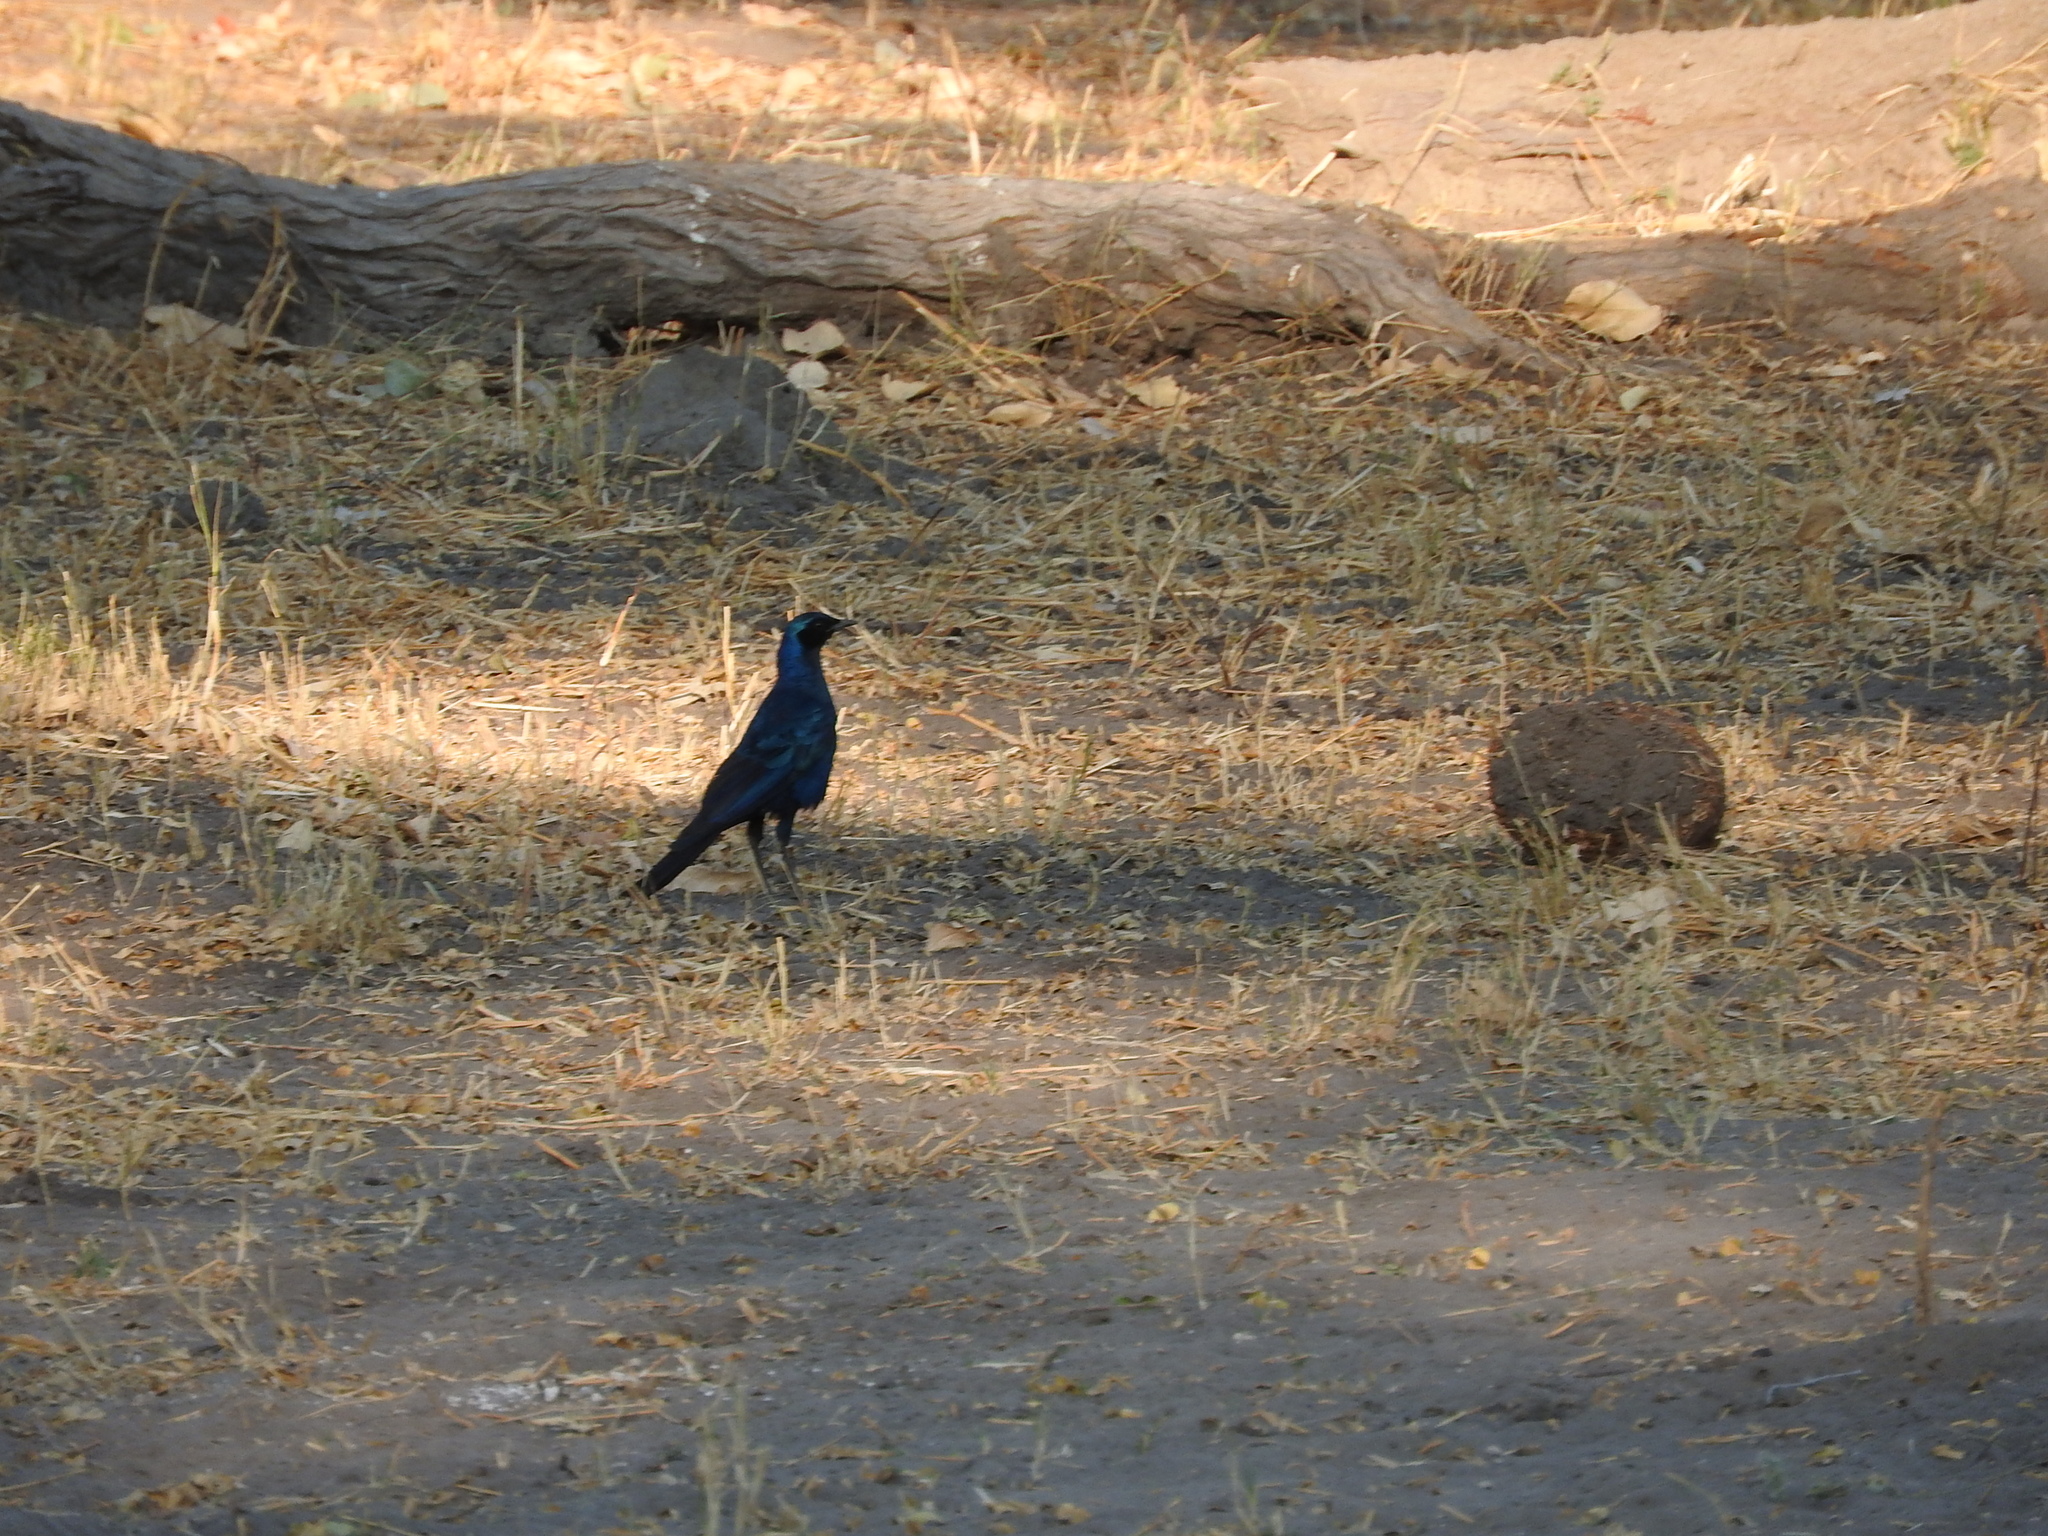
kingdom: Animalia
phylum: Chordata
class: Aves
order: Passeriformes
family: Sturnidae
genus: Lamprotornis
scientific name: Lamprotornis australis
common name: Burchell's starling
